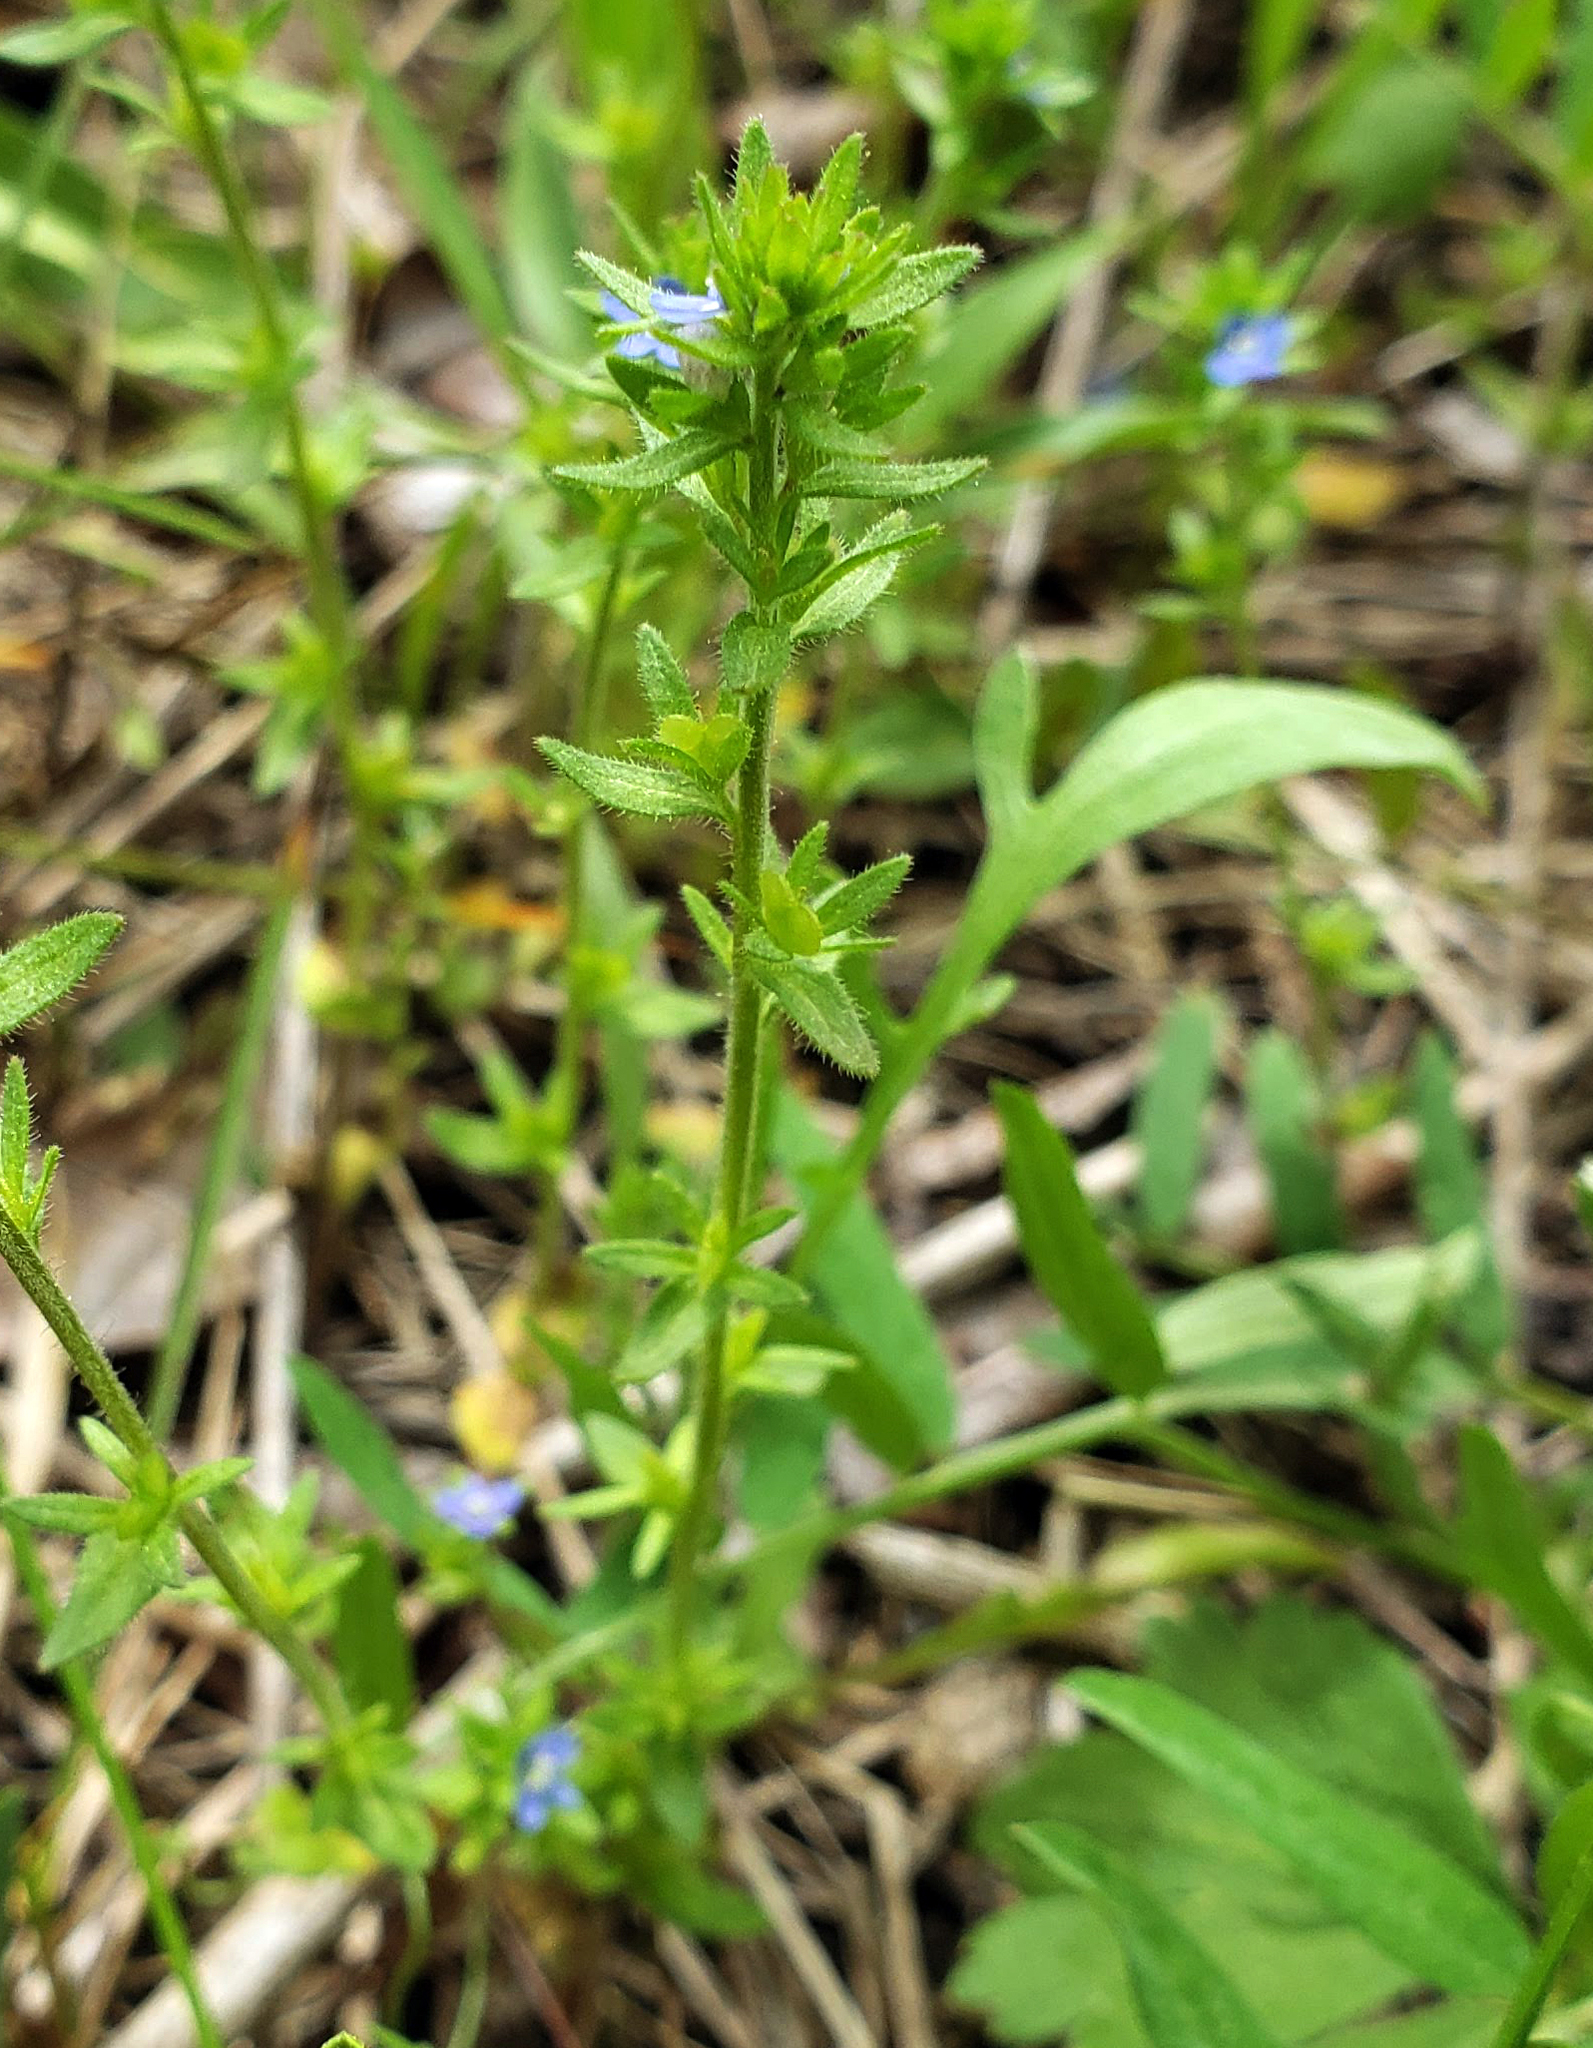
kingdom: Plantae
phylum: Tracheophyta
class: Magnoliopsida
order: Lamiales
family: Plantaginaceae
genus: Veronica
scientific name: Veronica arvensis
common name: Corn speedwell
